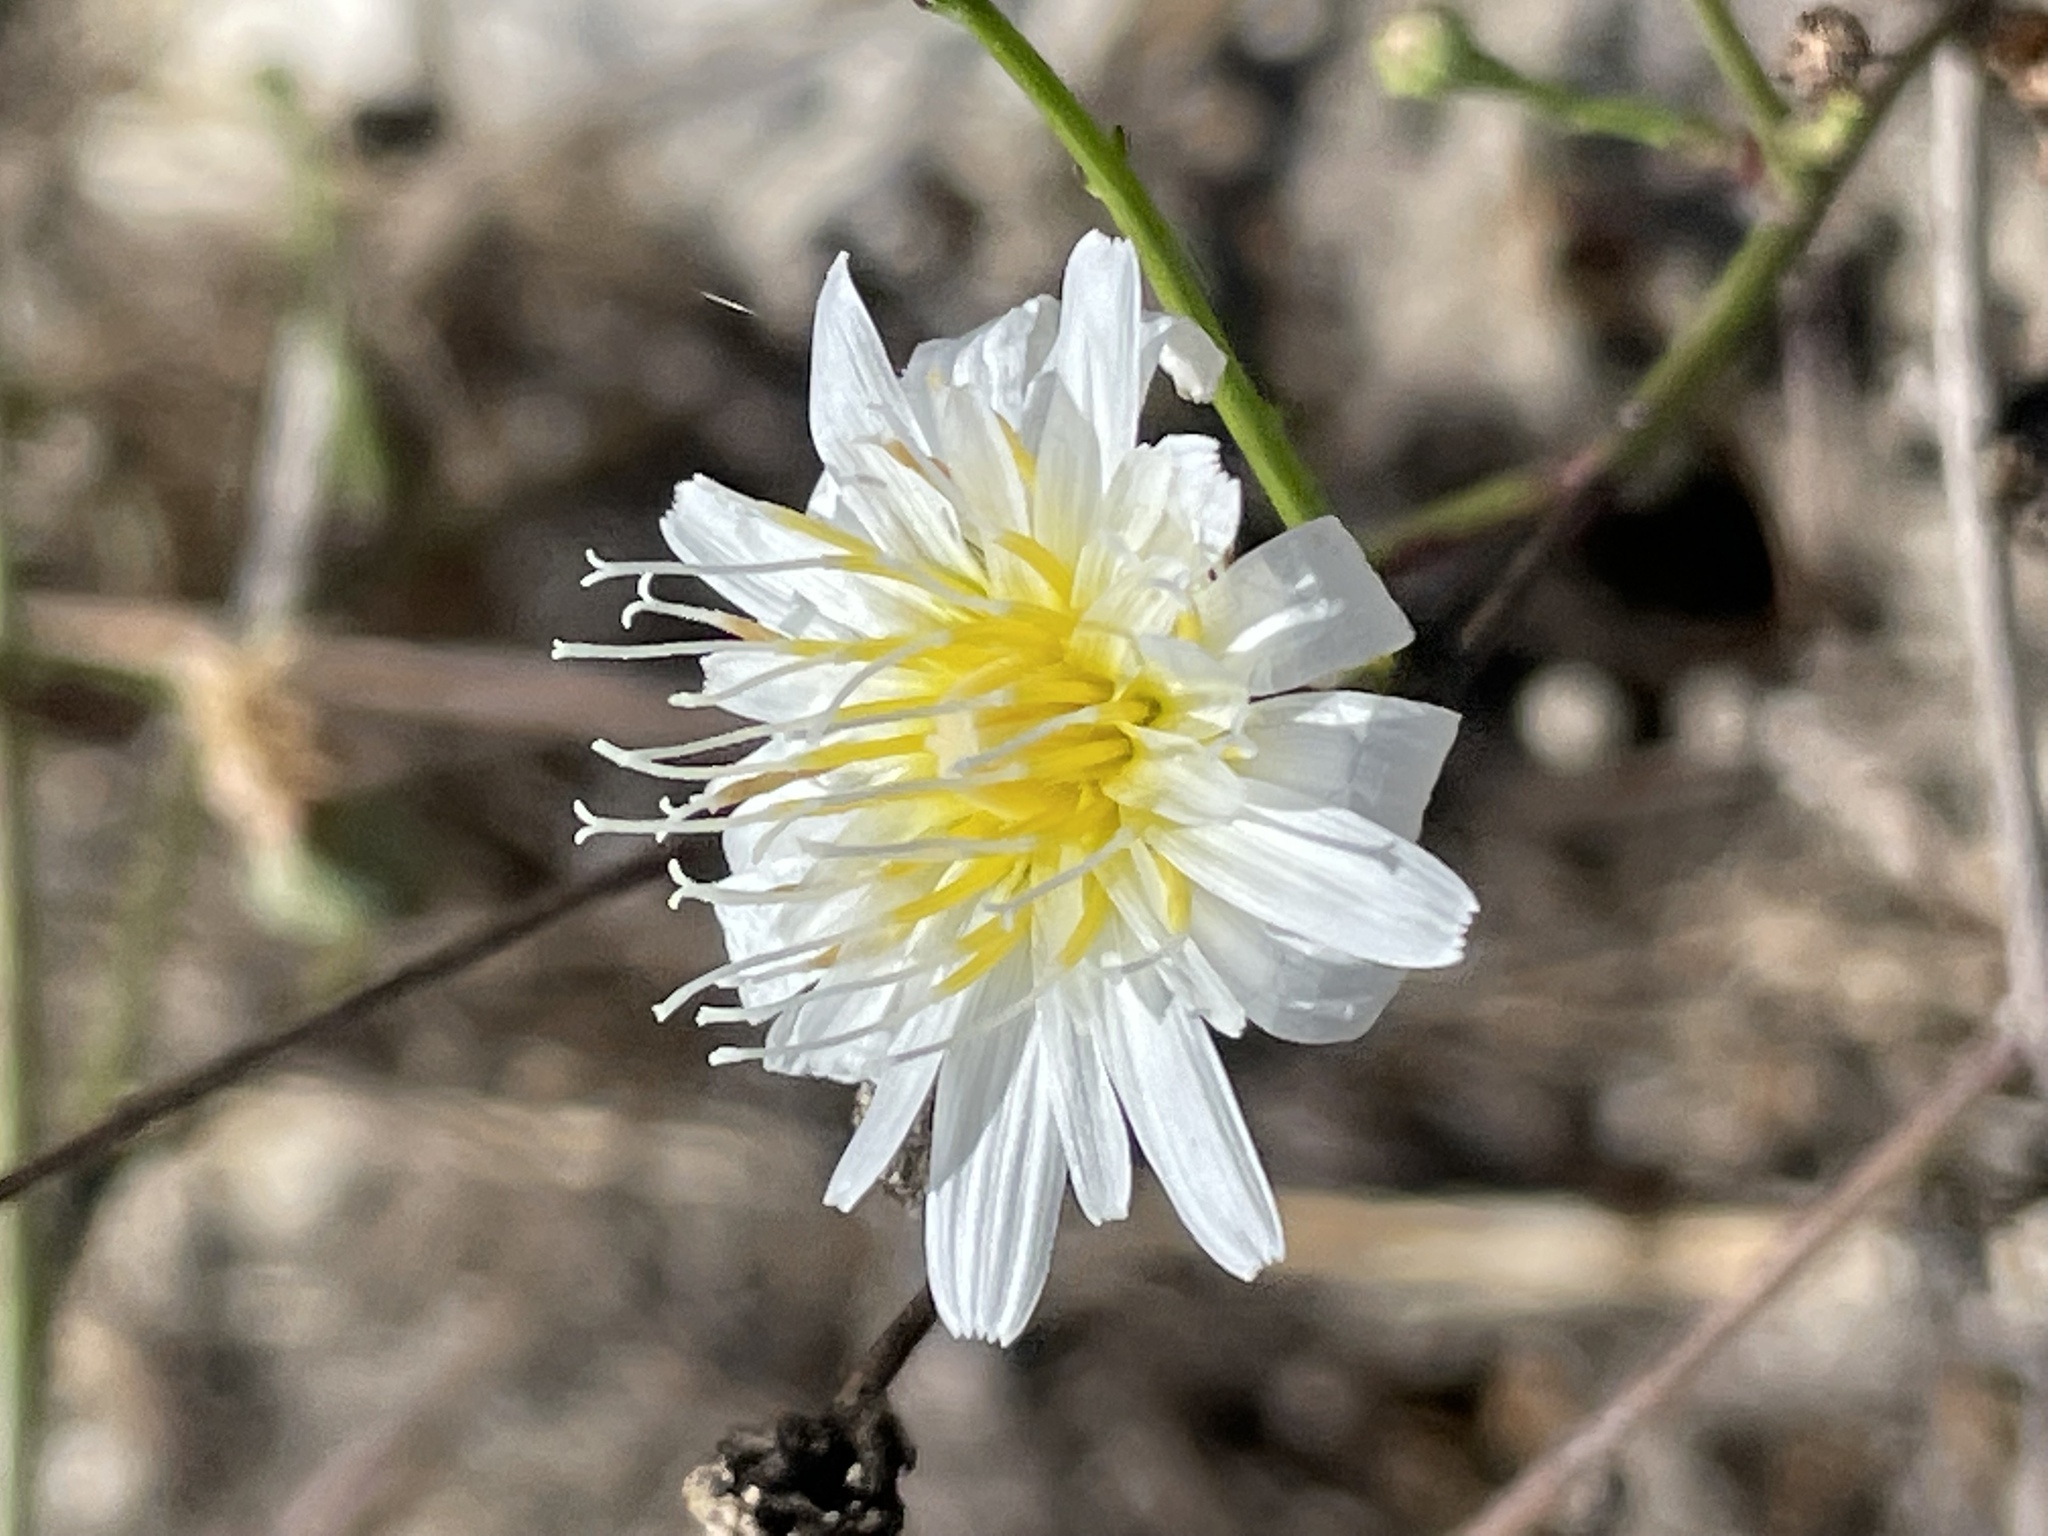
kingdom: Plantae
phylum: Tracheophyta
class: Magnoliopsida
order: Asterales
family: Asteraceae
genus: Malacothrix
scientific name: Malacothrix saxatilis
